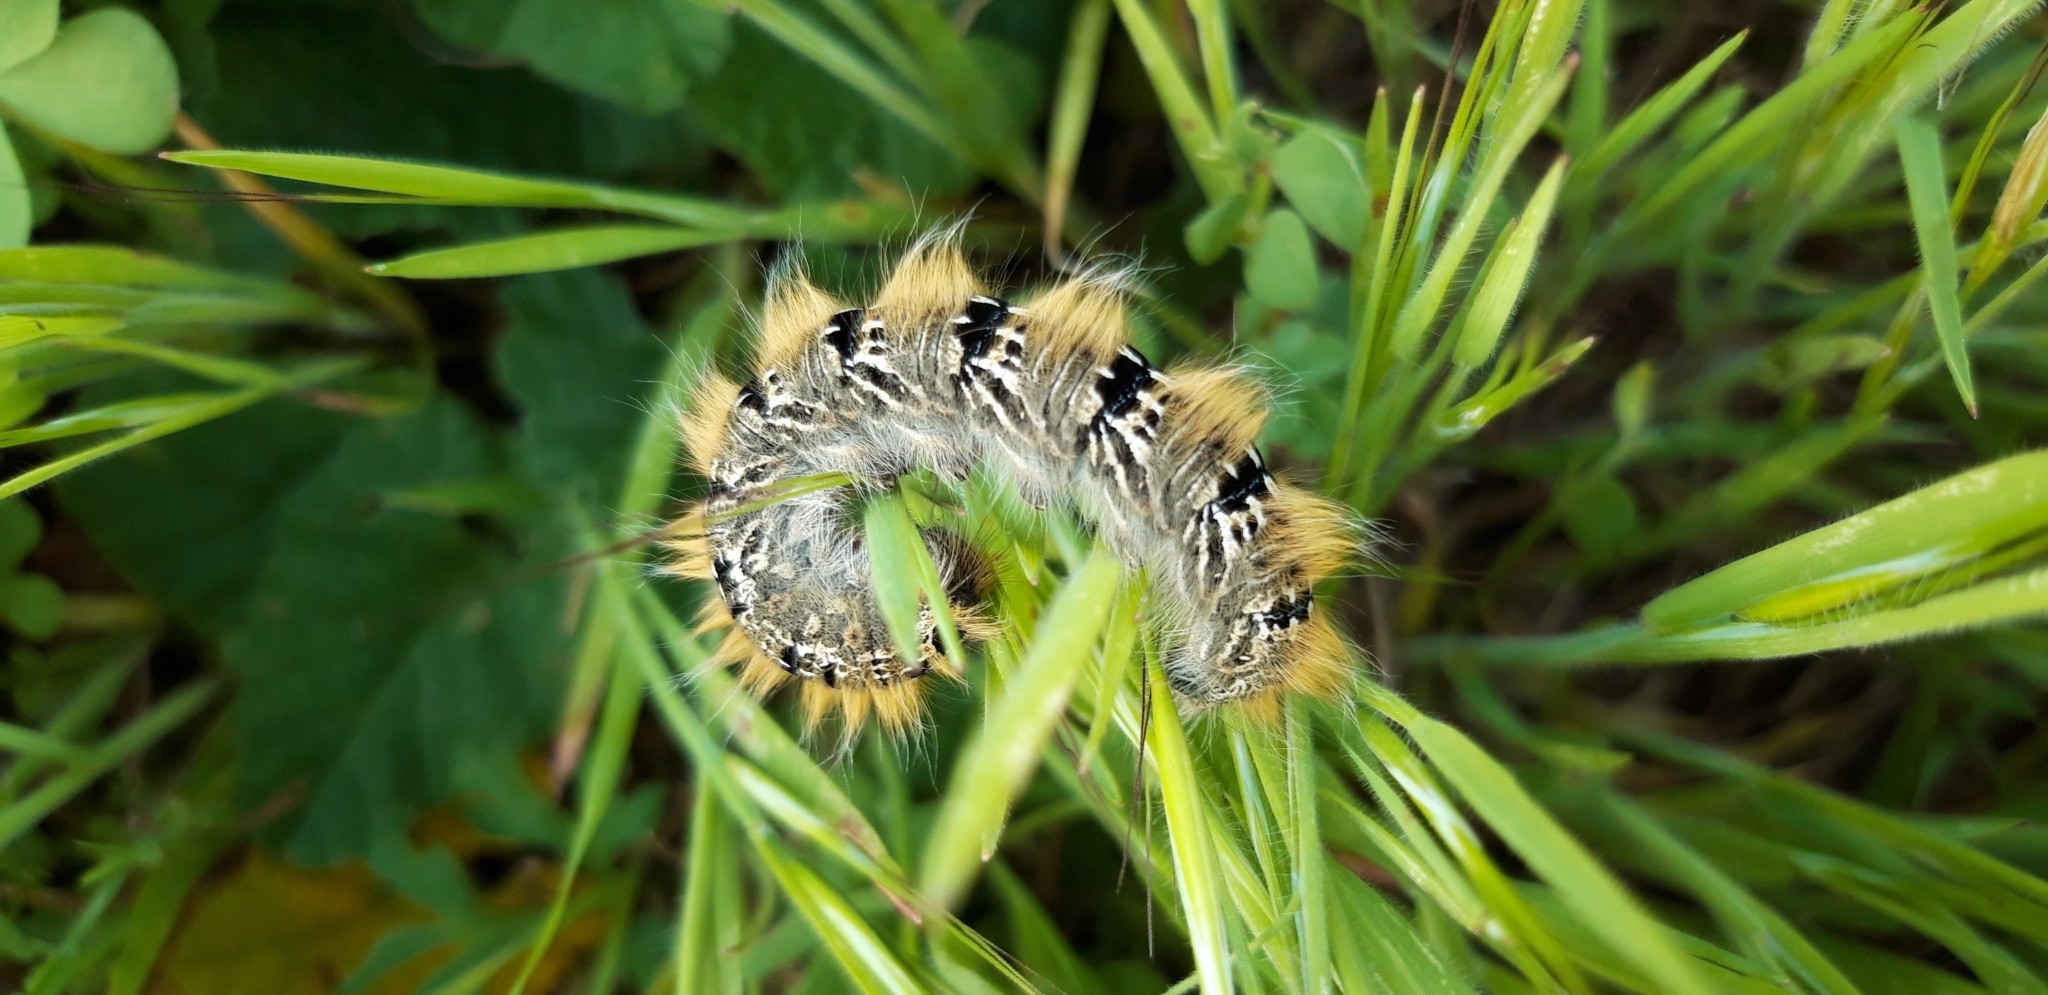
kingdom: Animalia
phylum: Arthropoda
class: Insecta
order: Lepidoptera
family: Lasiocampidae
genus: Lasiocampa
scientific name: Lasiocampa terreni
